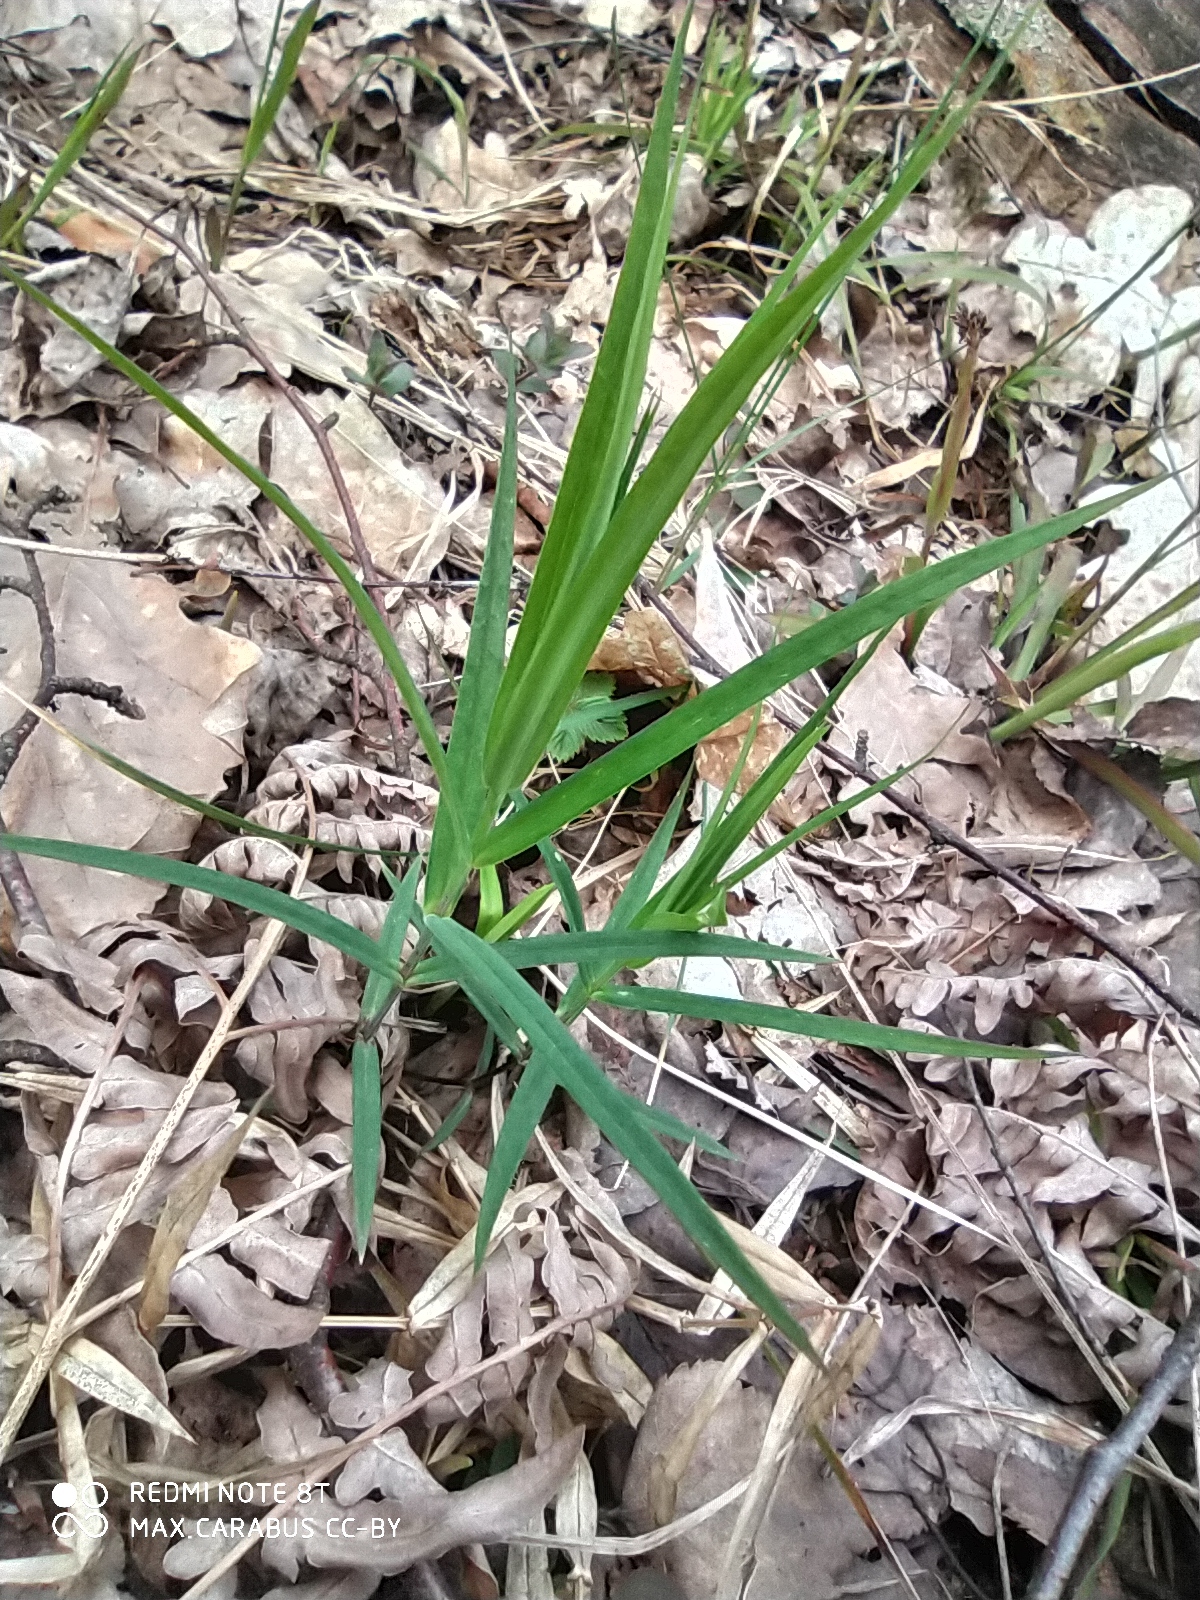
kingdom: Plantae
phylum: Tracheophyta
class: Magnoliopsida
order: Caryophyllales
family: Caryophyllaceae
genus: Rabelera
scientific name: Rabelera holostea
